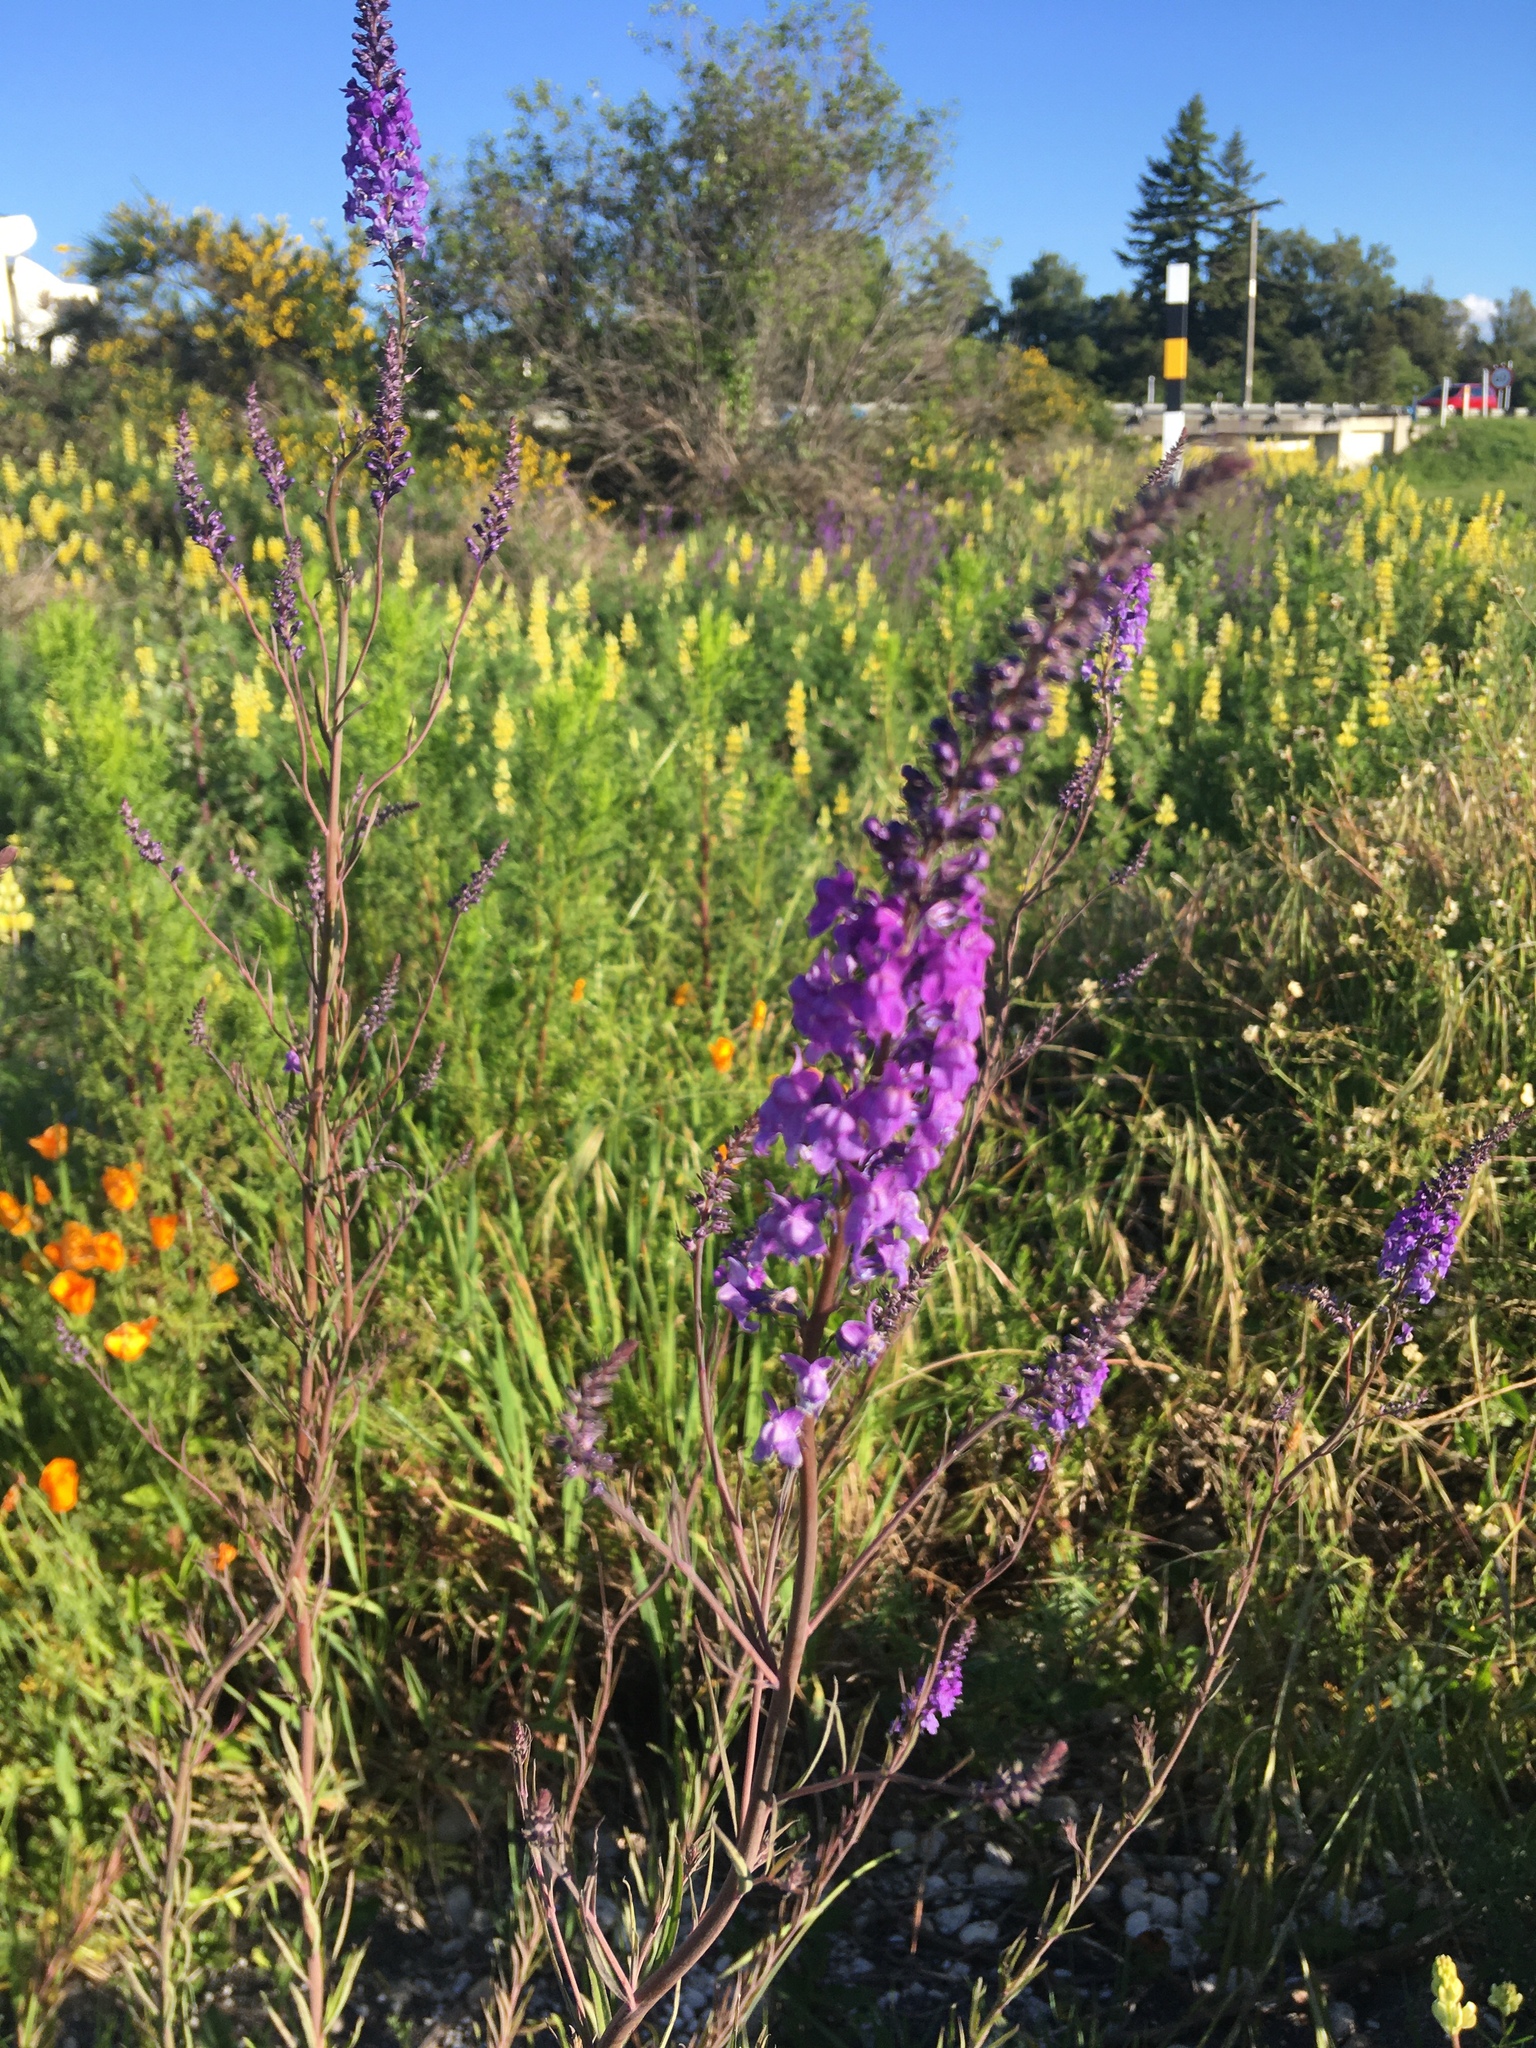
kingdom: Plantae
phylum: Tracheophyta
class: Magnoliopsida
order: Lamiales
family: Plantaginaceae
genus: Linaria
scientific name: Linaria purpurea
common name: Purple toadflax
